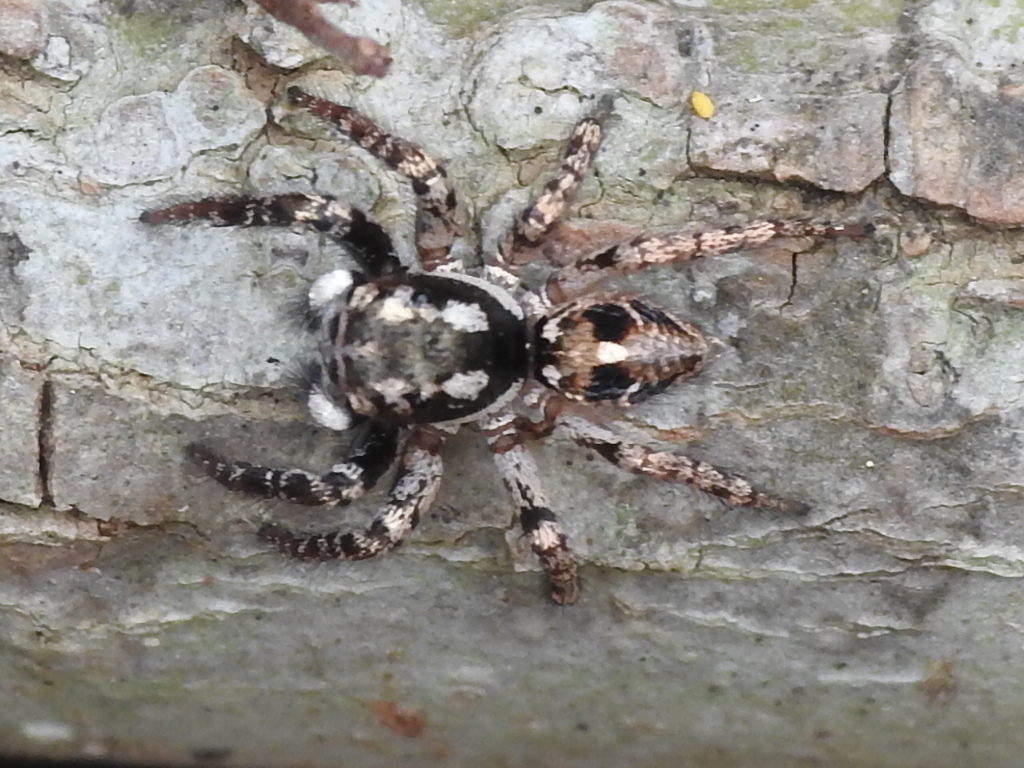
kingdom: Animalia
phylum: Arthropoda
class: Arachnida
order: Araneae
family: Salticidae
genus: Anasaitis
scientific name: Anasaitis canosa
